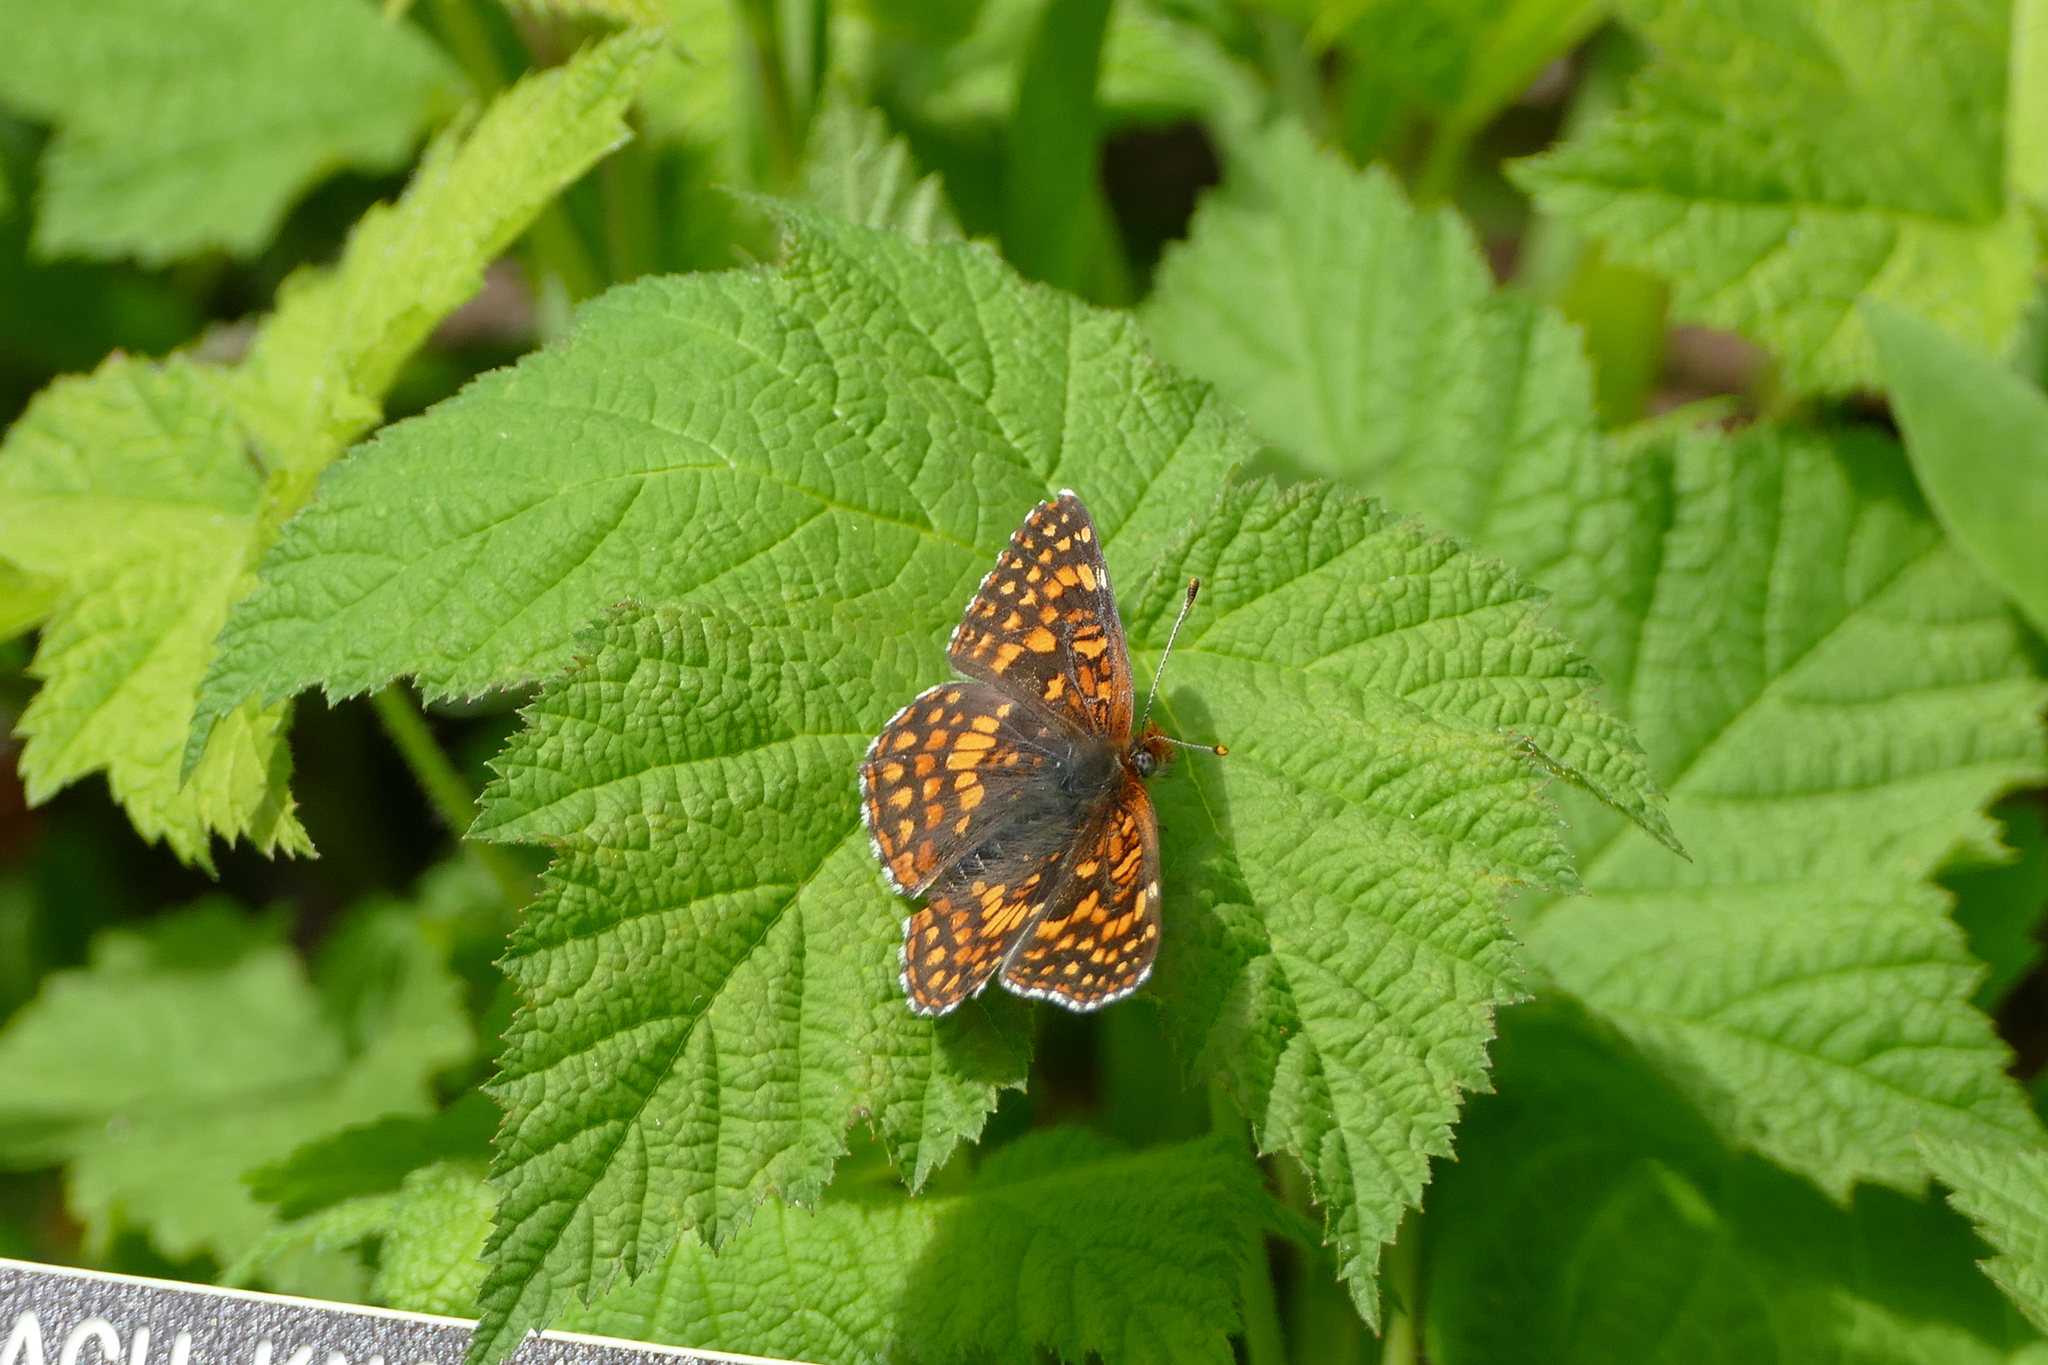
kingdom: Animalia
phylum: Arthropoda
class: Insecta
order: Lepidoptera
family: Nymphalidae
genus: Chlosyne
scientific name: Chlosyne palla
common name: Northern checkerspot
